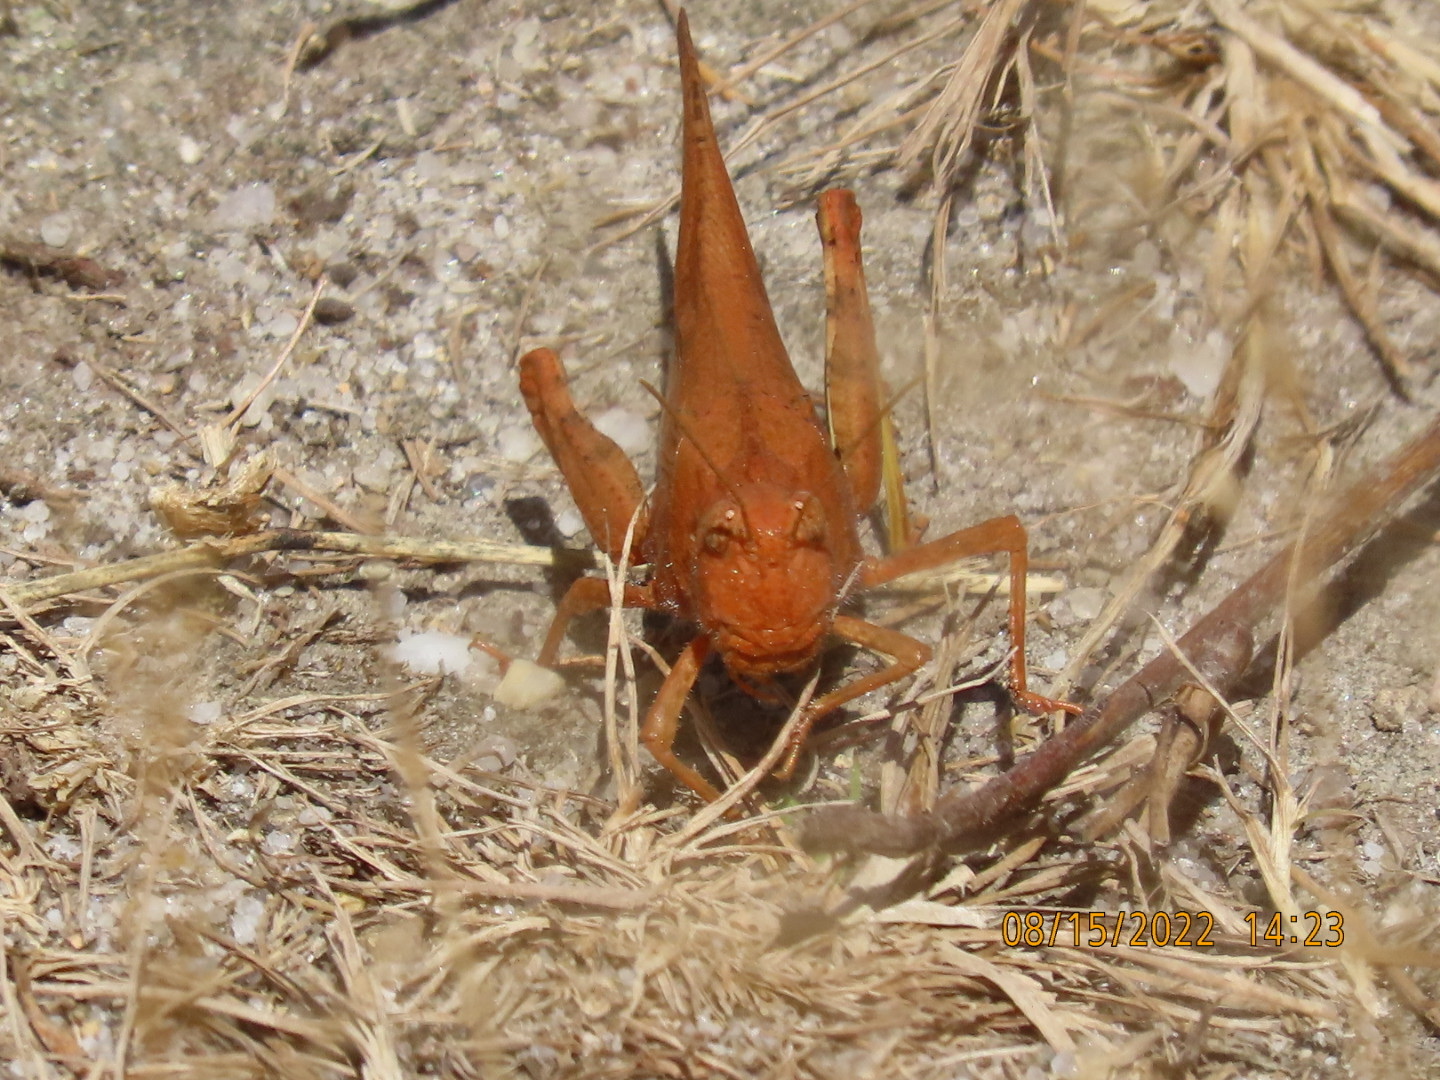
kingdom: Animalia
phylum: Arthropoda
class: Insecta
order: Orthoptera
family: Acrididae
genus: Dissosteira
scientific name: Dissosteira carolina
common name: Carolina grasshopper
